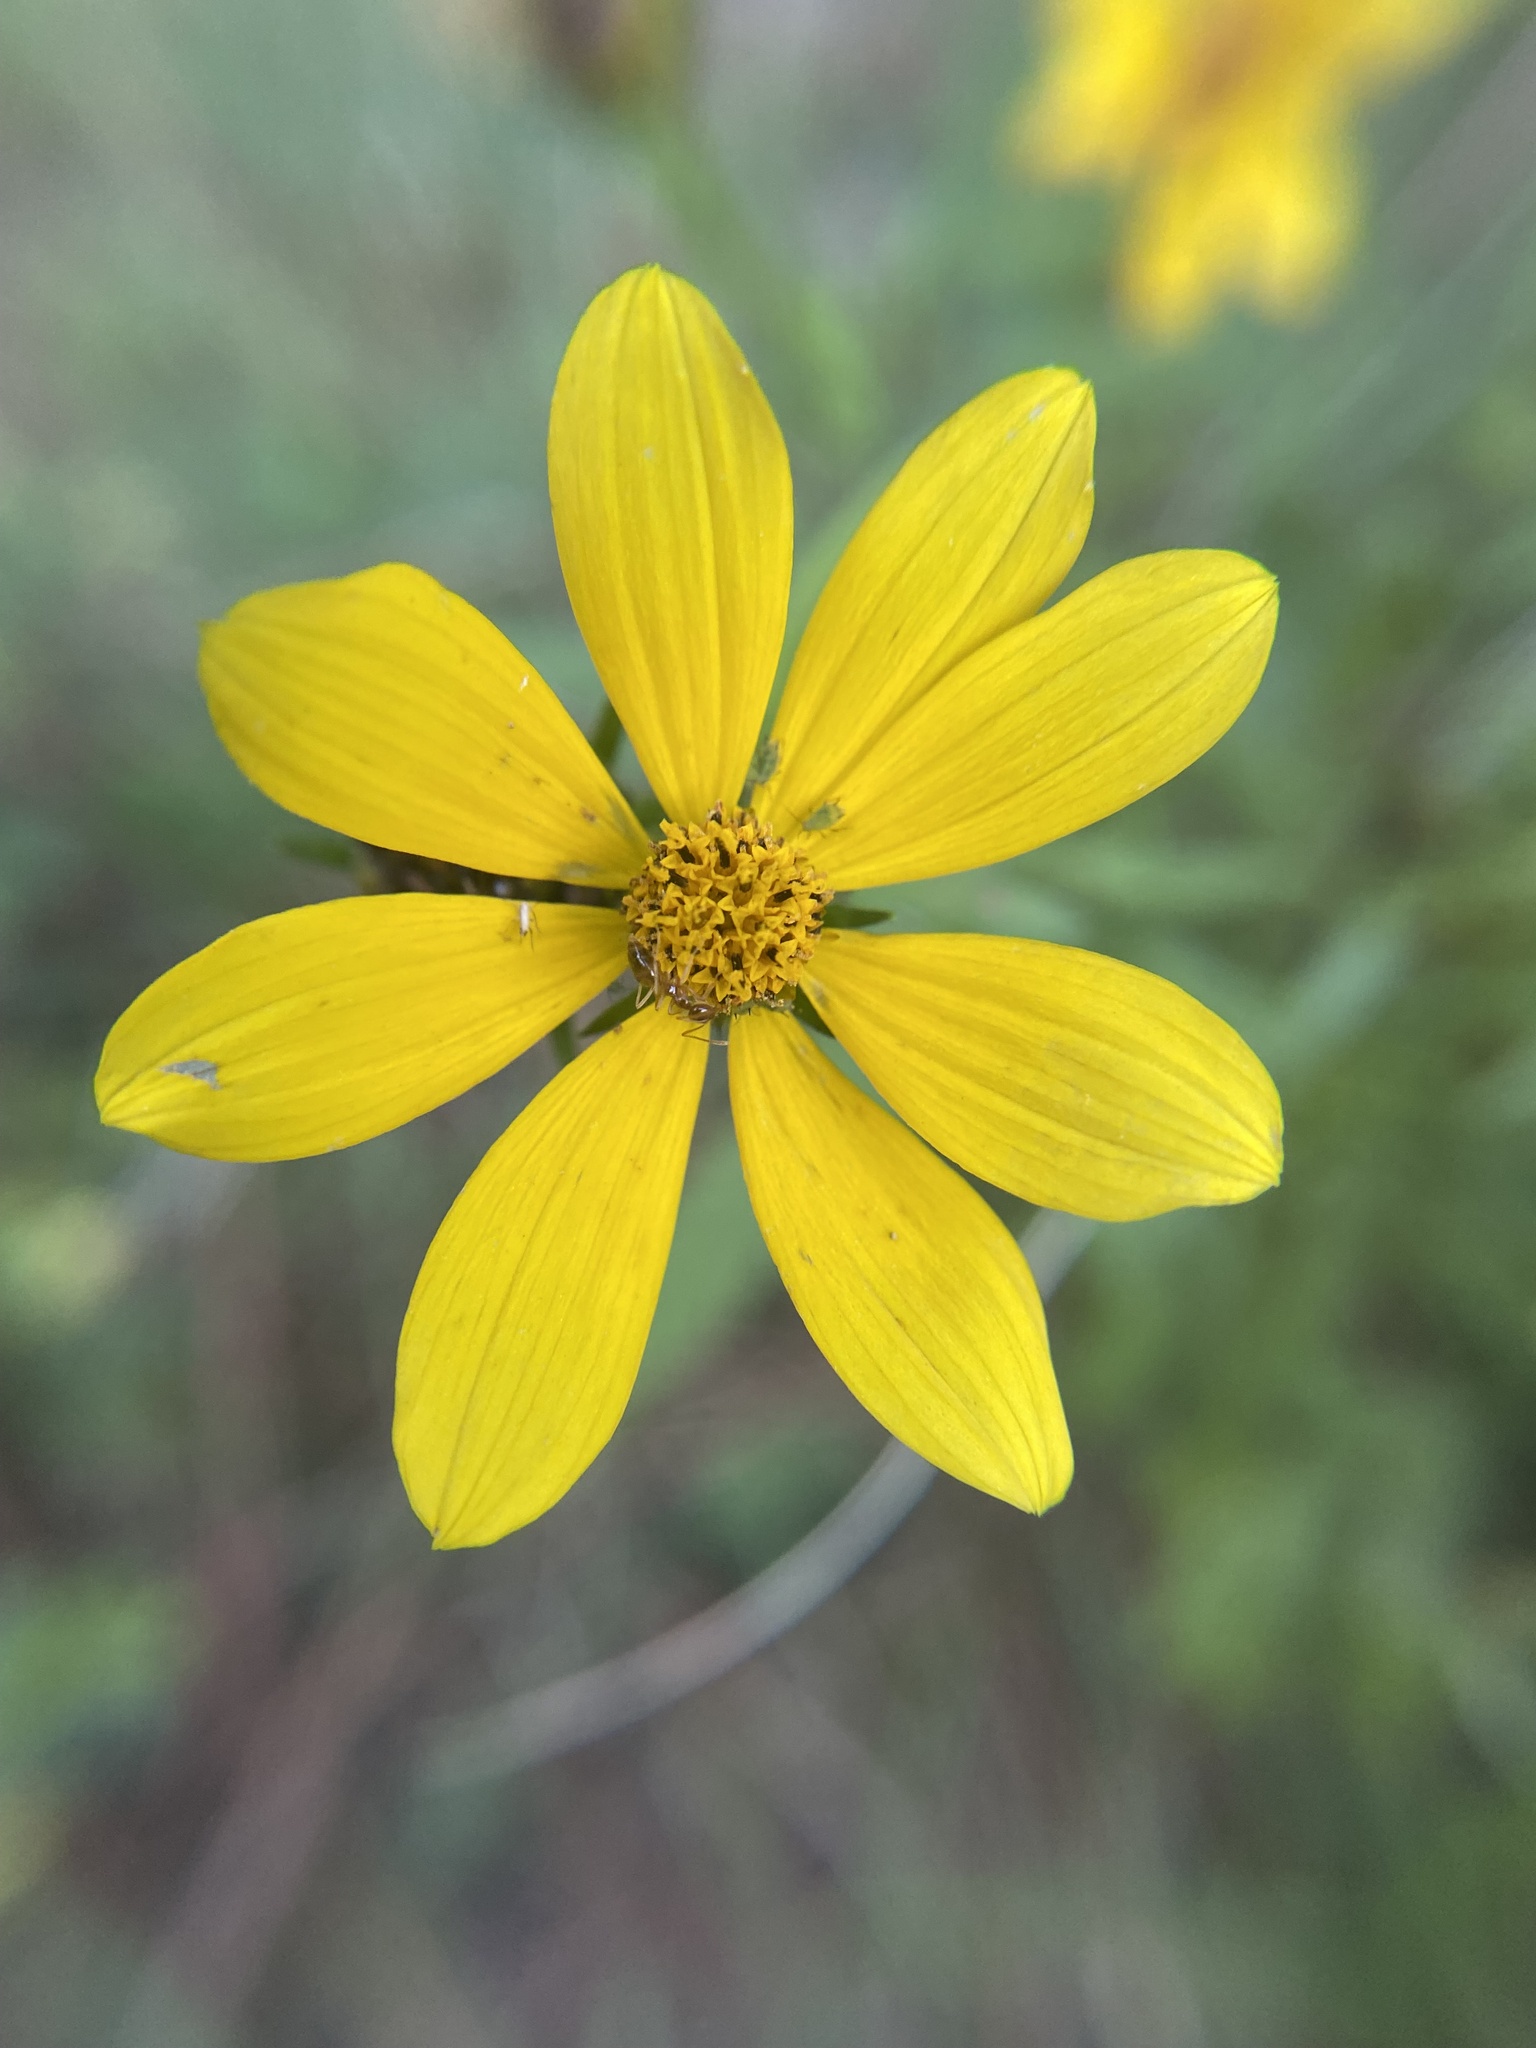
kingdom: Plantae
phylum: Tracheophyta
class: Magnoliopsida
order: Asterales
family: Asteraceae
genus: Bidens
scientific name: Bidens aristosa
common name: Western tickseed
